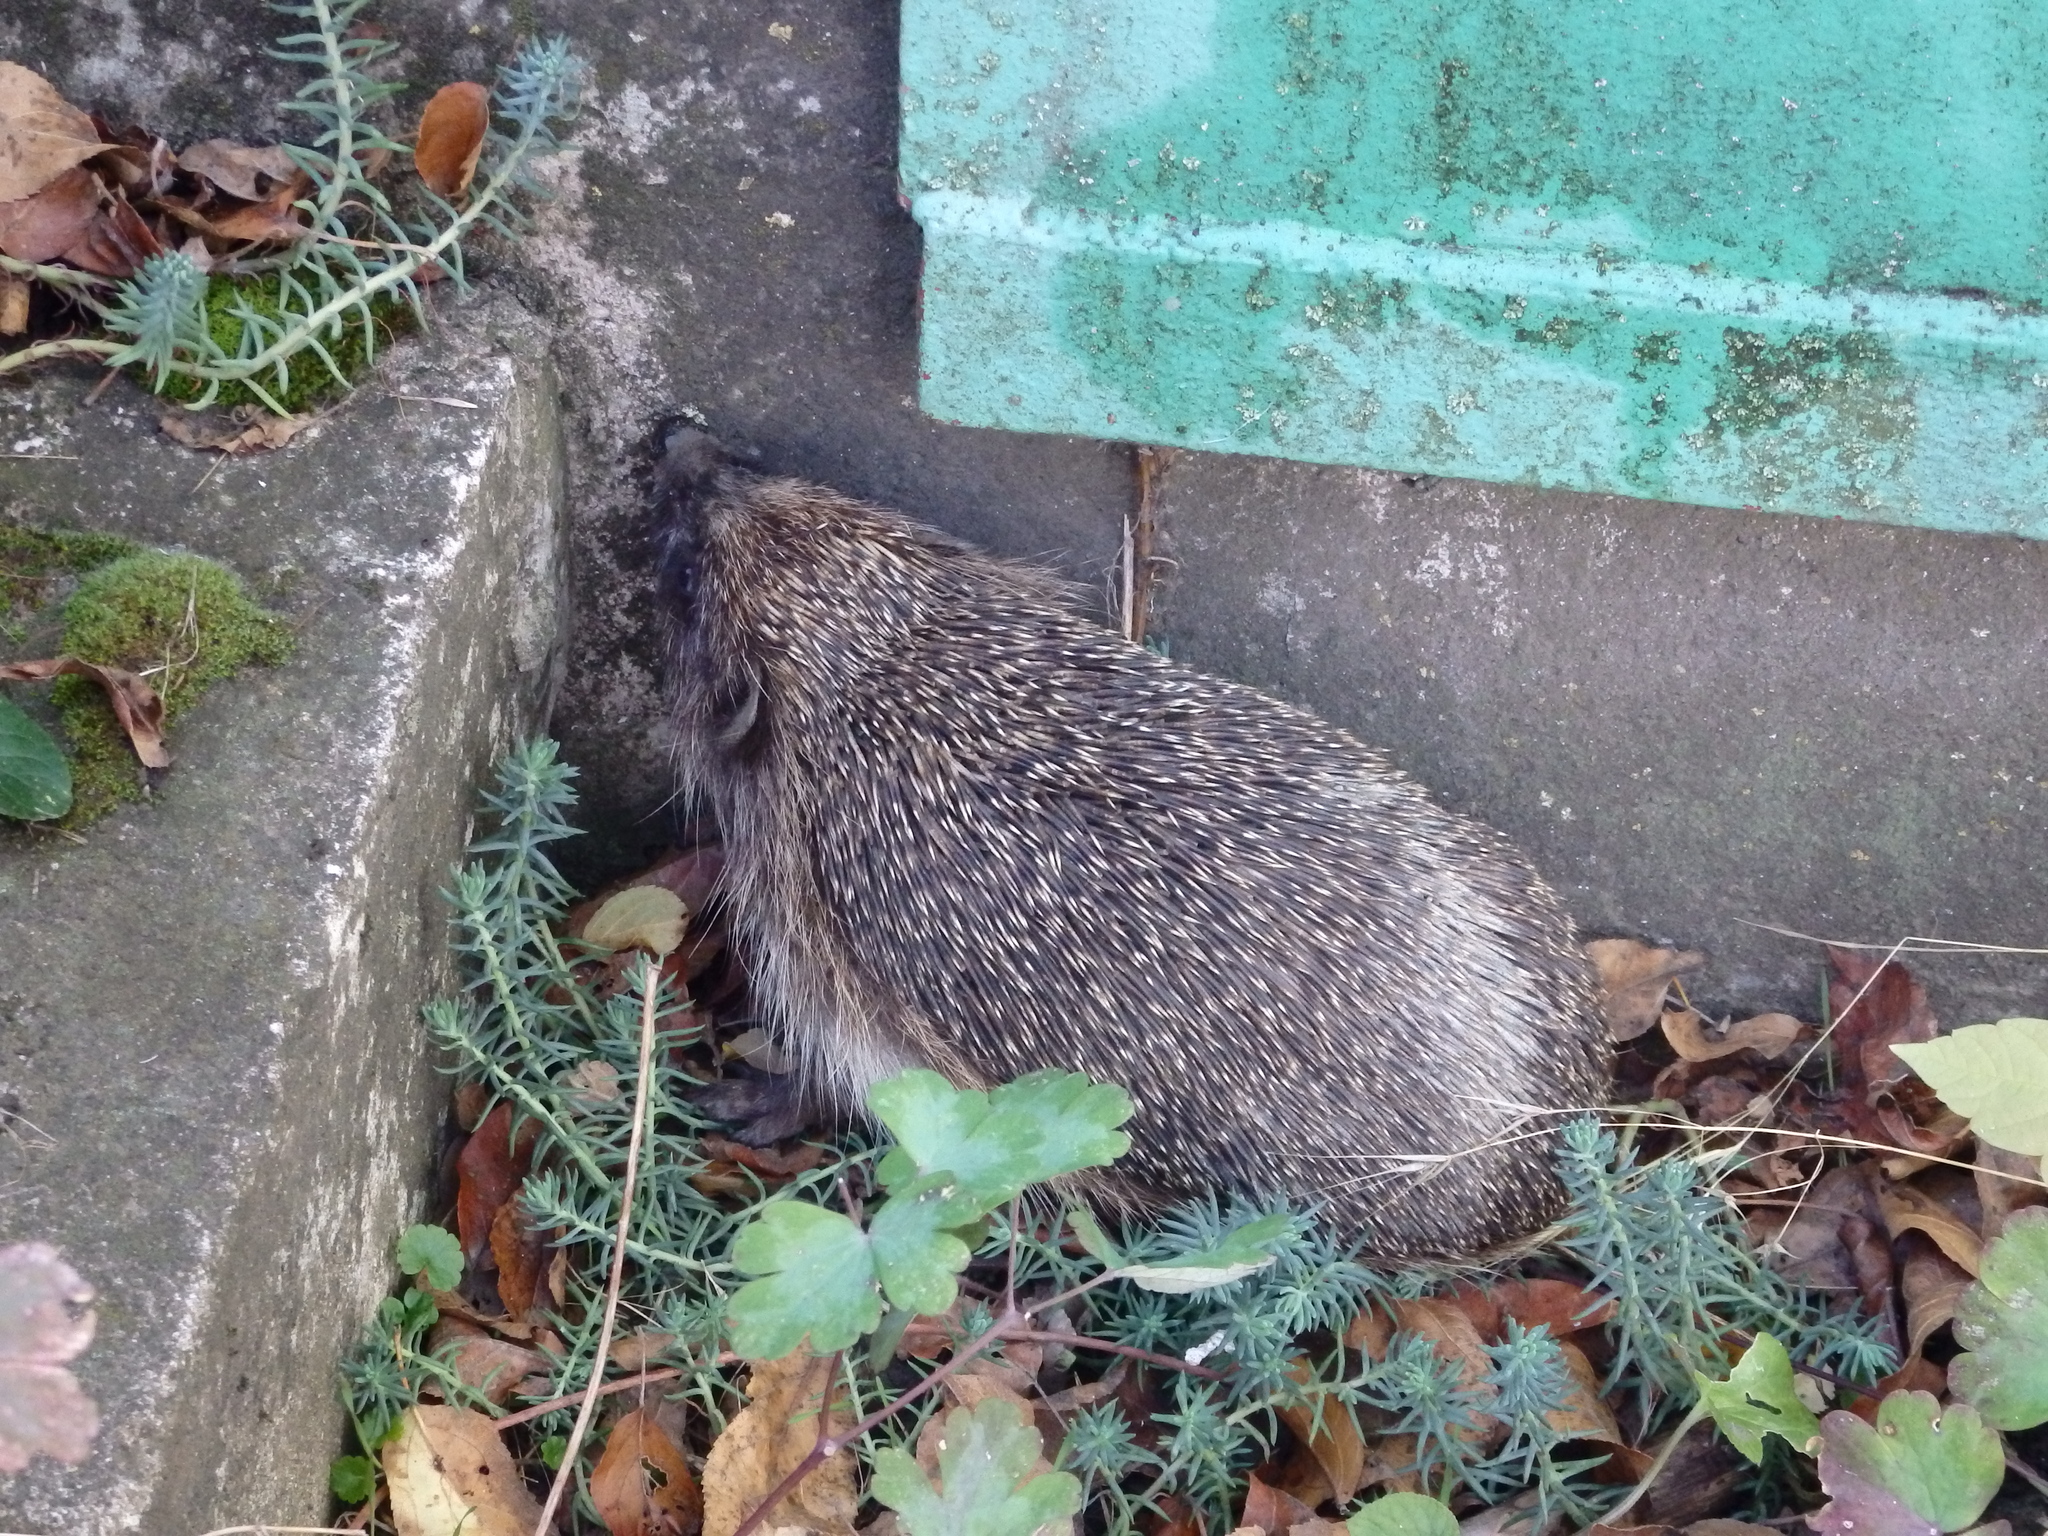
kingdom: Animalia
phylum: Chordata
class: Mammalia
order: Erinaceomorpha
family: Erinaceidae
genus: Erinaceus
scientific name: Erinaceus roumanicus
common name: Northern white-breasted hedgehog
